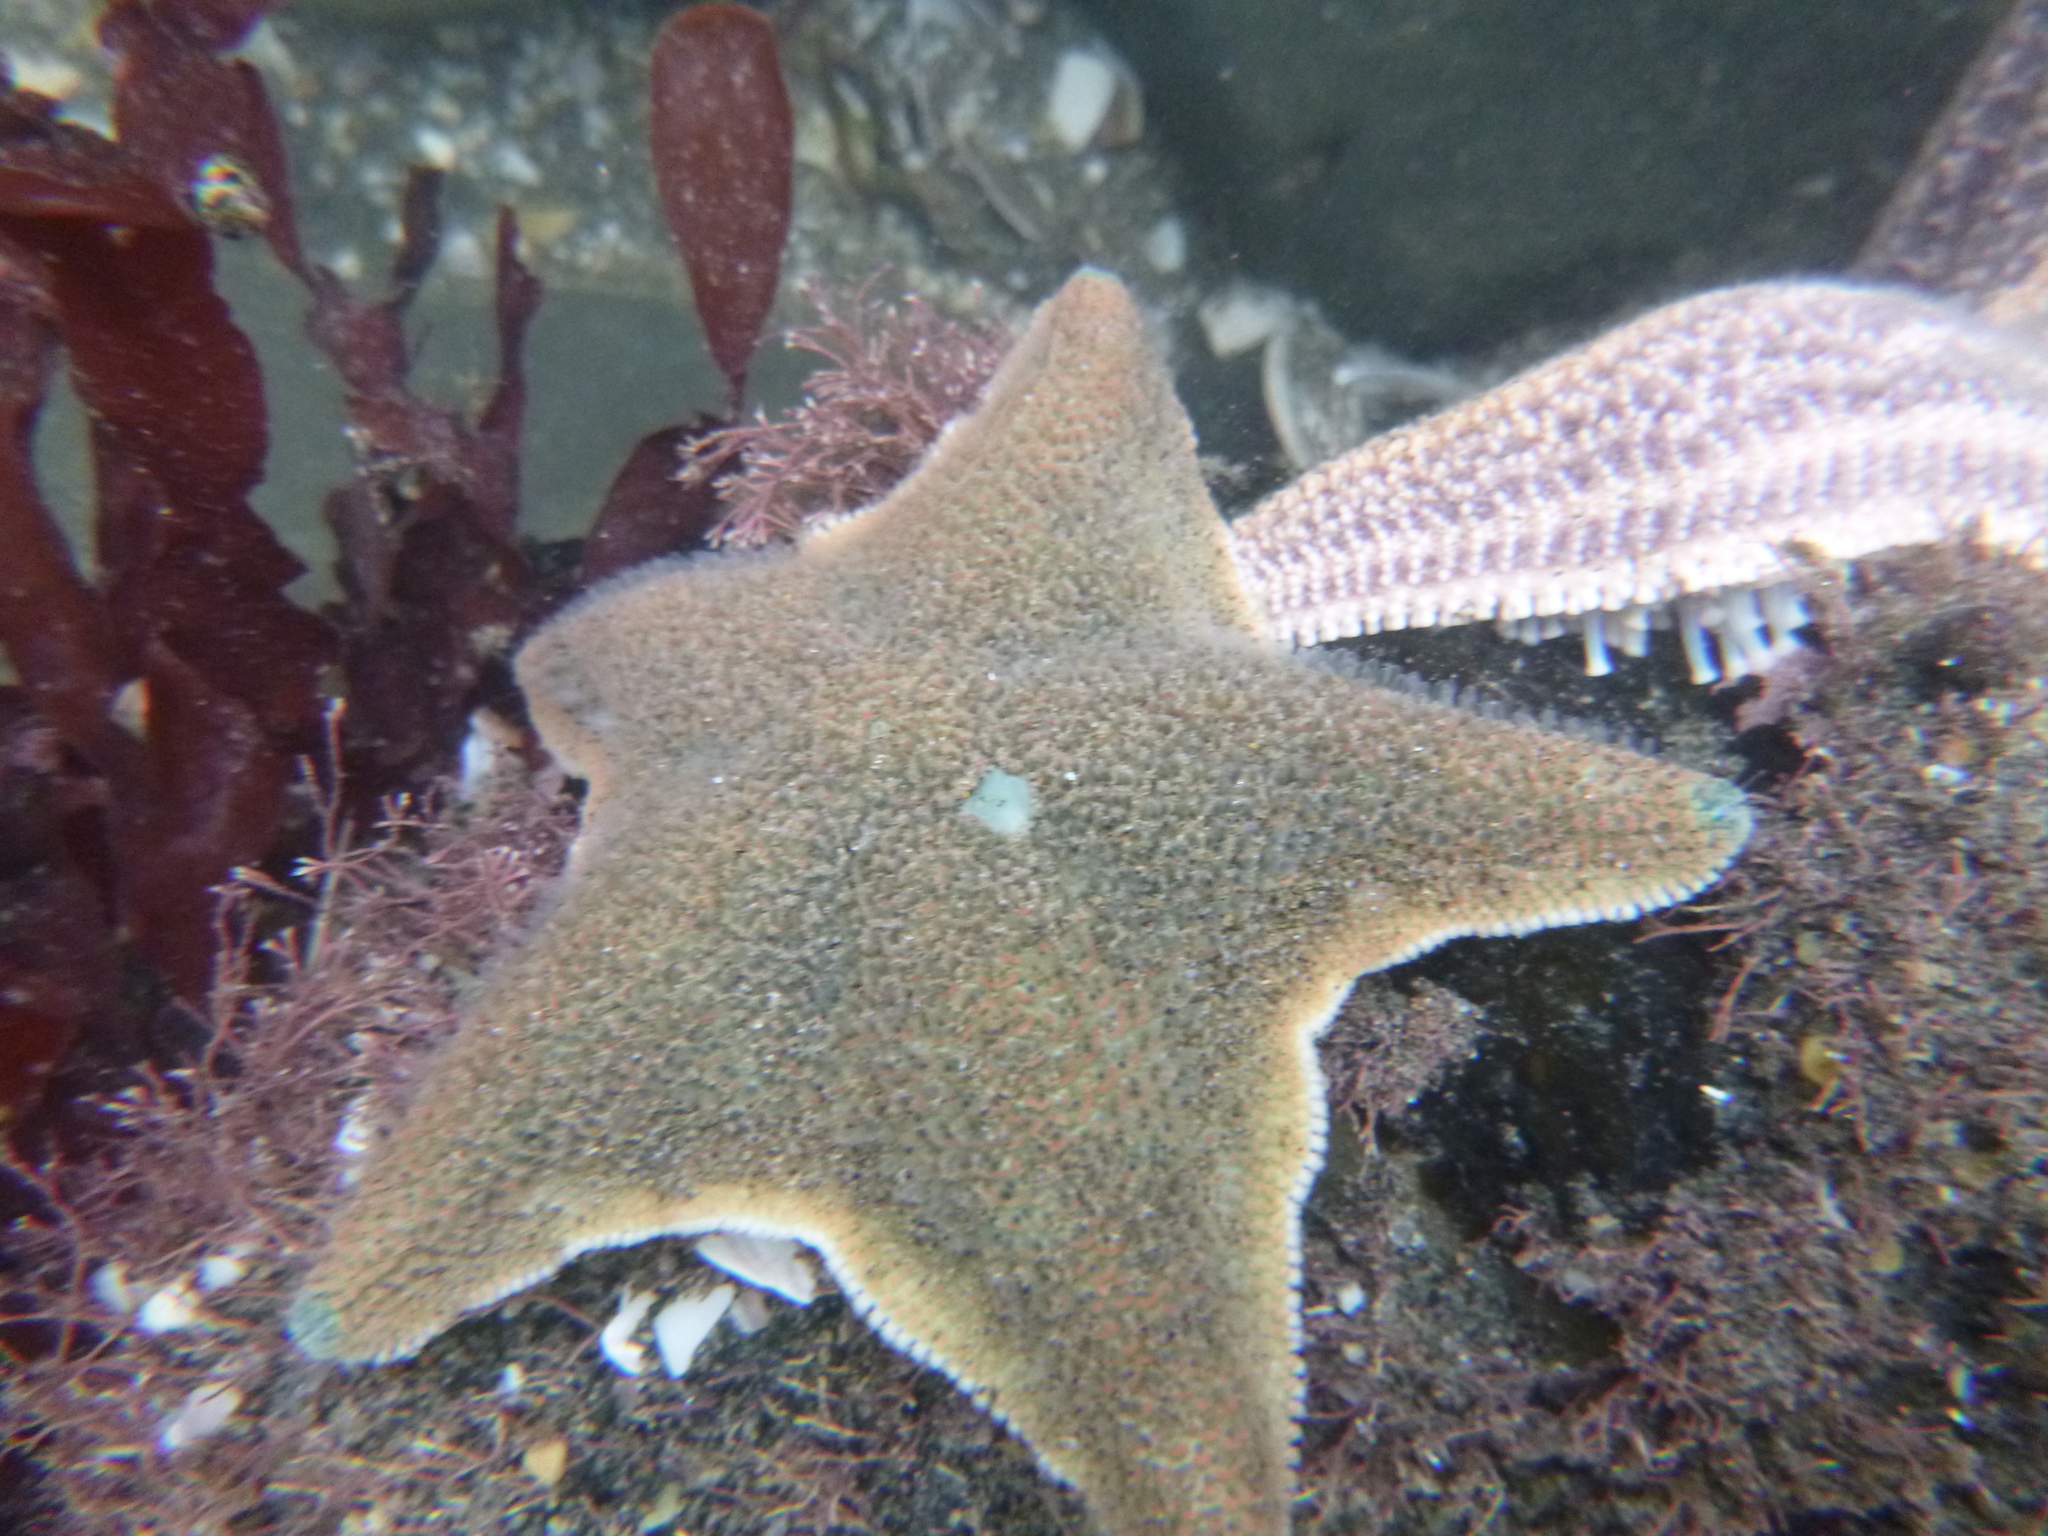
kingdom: Animalia
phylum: Echinodermata
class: Asteroidea
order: Valvatida
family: Asterinidae
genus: Patiriella
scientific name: Patiriella regularis
